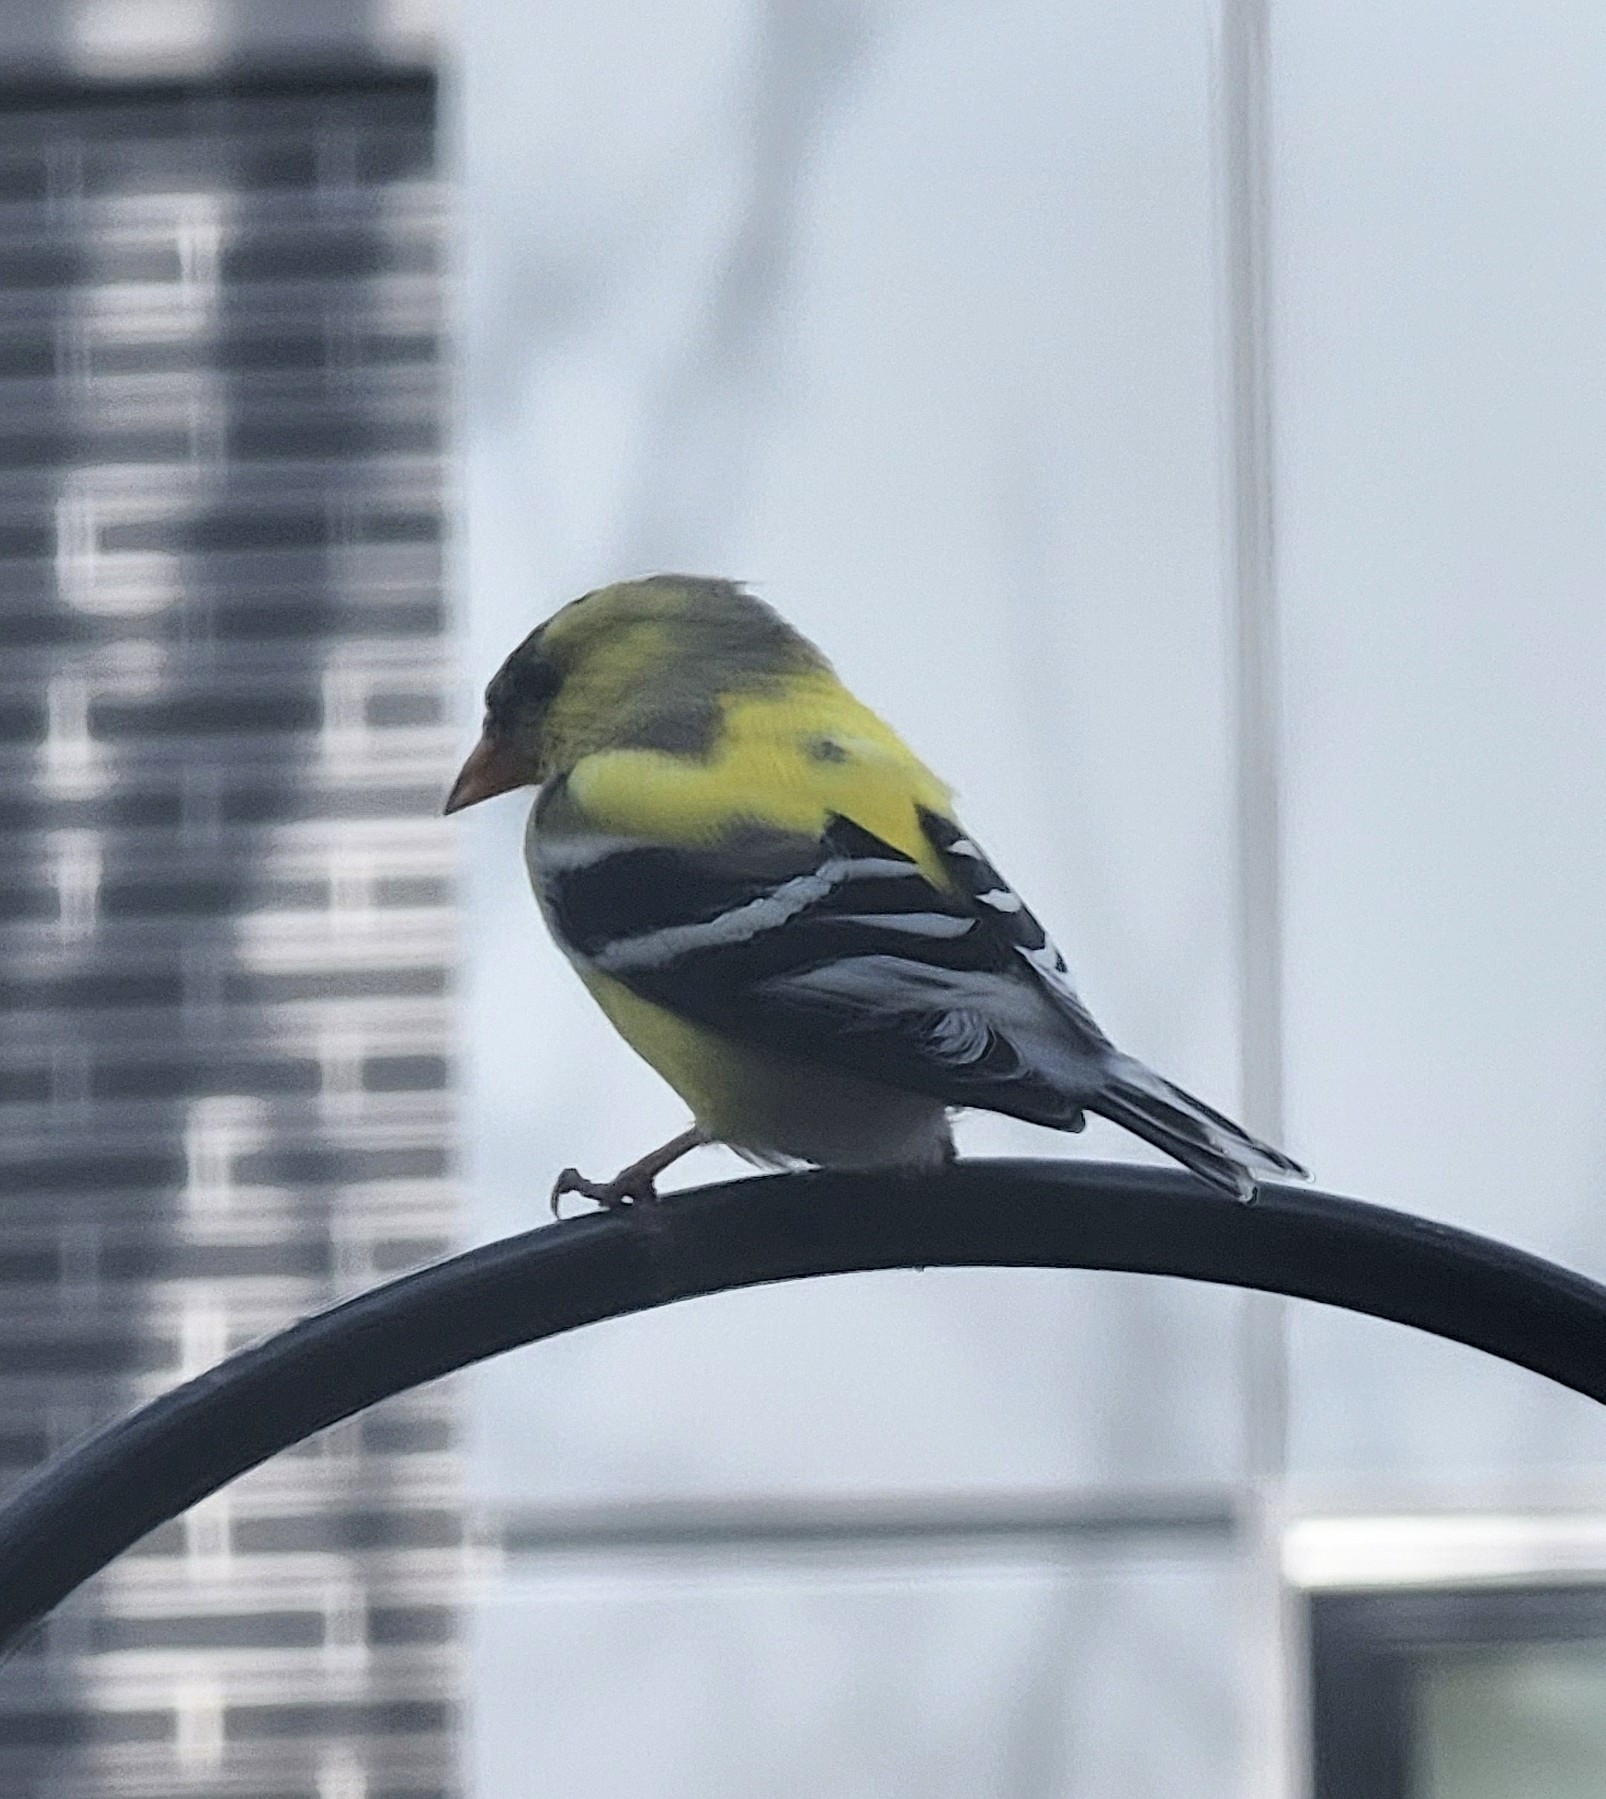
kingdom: Animalia
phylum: Chordata
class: Aves
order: Passeriformes
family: Fringillidae
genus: Spinus
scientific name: Spinus tristis
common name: American goldfinch
